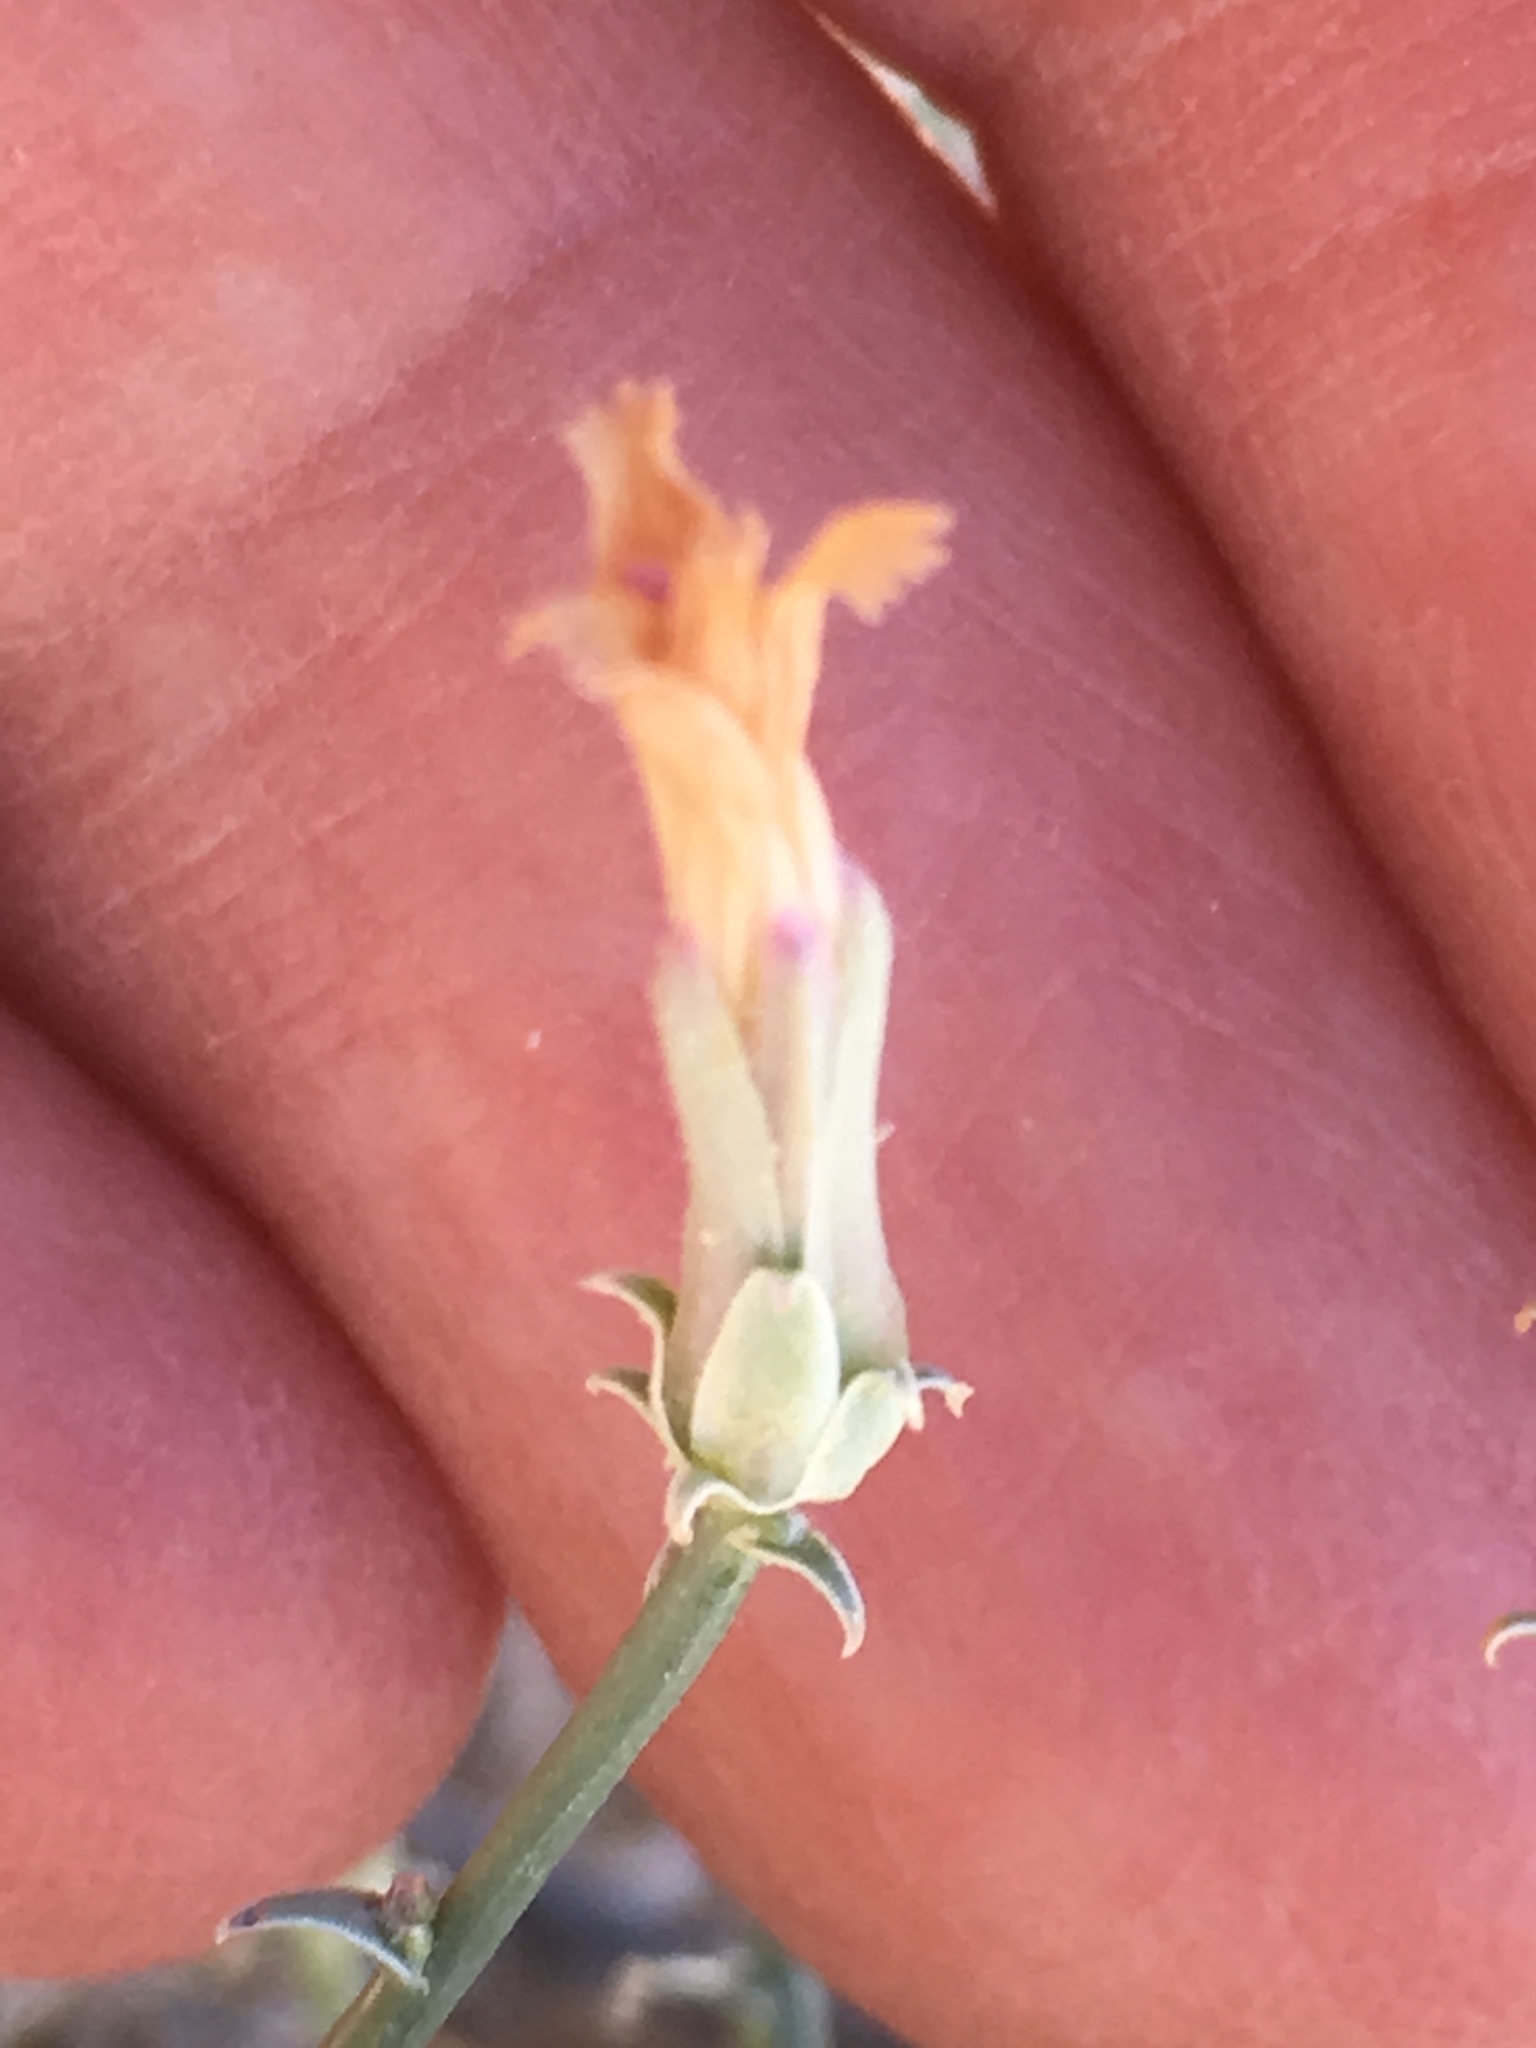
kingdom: Plantae
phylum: Tracheophyta
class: Magnoliopsida
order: Asterales
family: Asteraceae
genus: Stephanomeria
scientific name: Stephanomeria pauciflora
